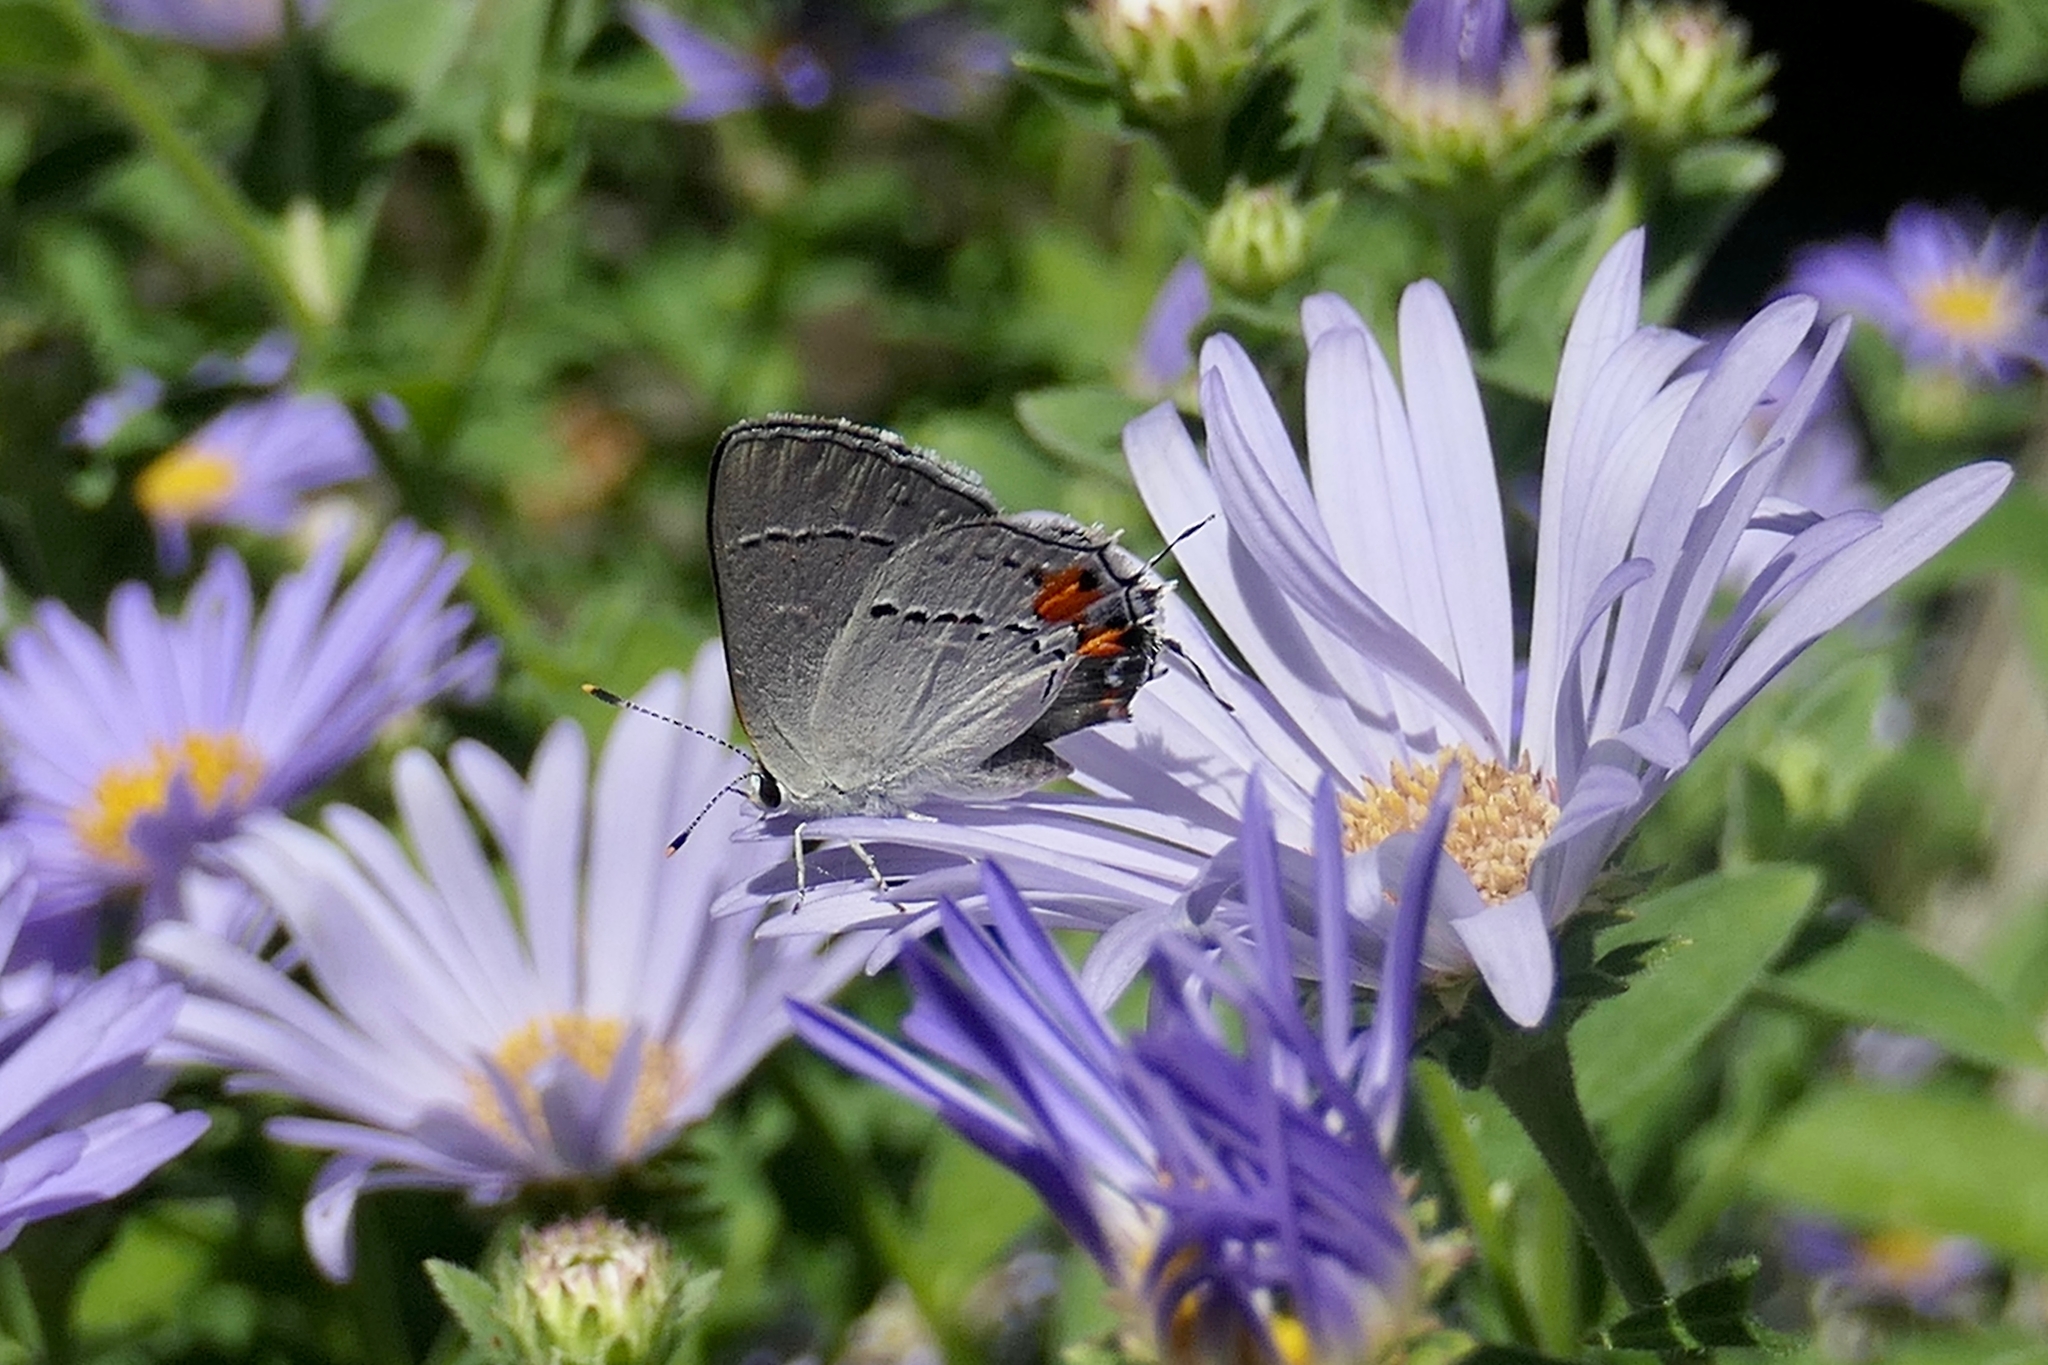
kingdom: Animalia
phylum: Arthropoda
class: Insecta
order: Lepidoptera
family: Lycaenidae
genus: Strymon
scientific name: Strymon melinus
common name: Gray hairstreak
